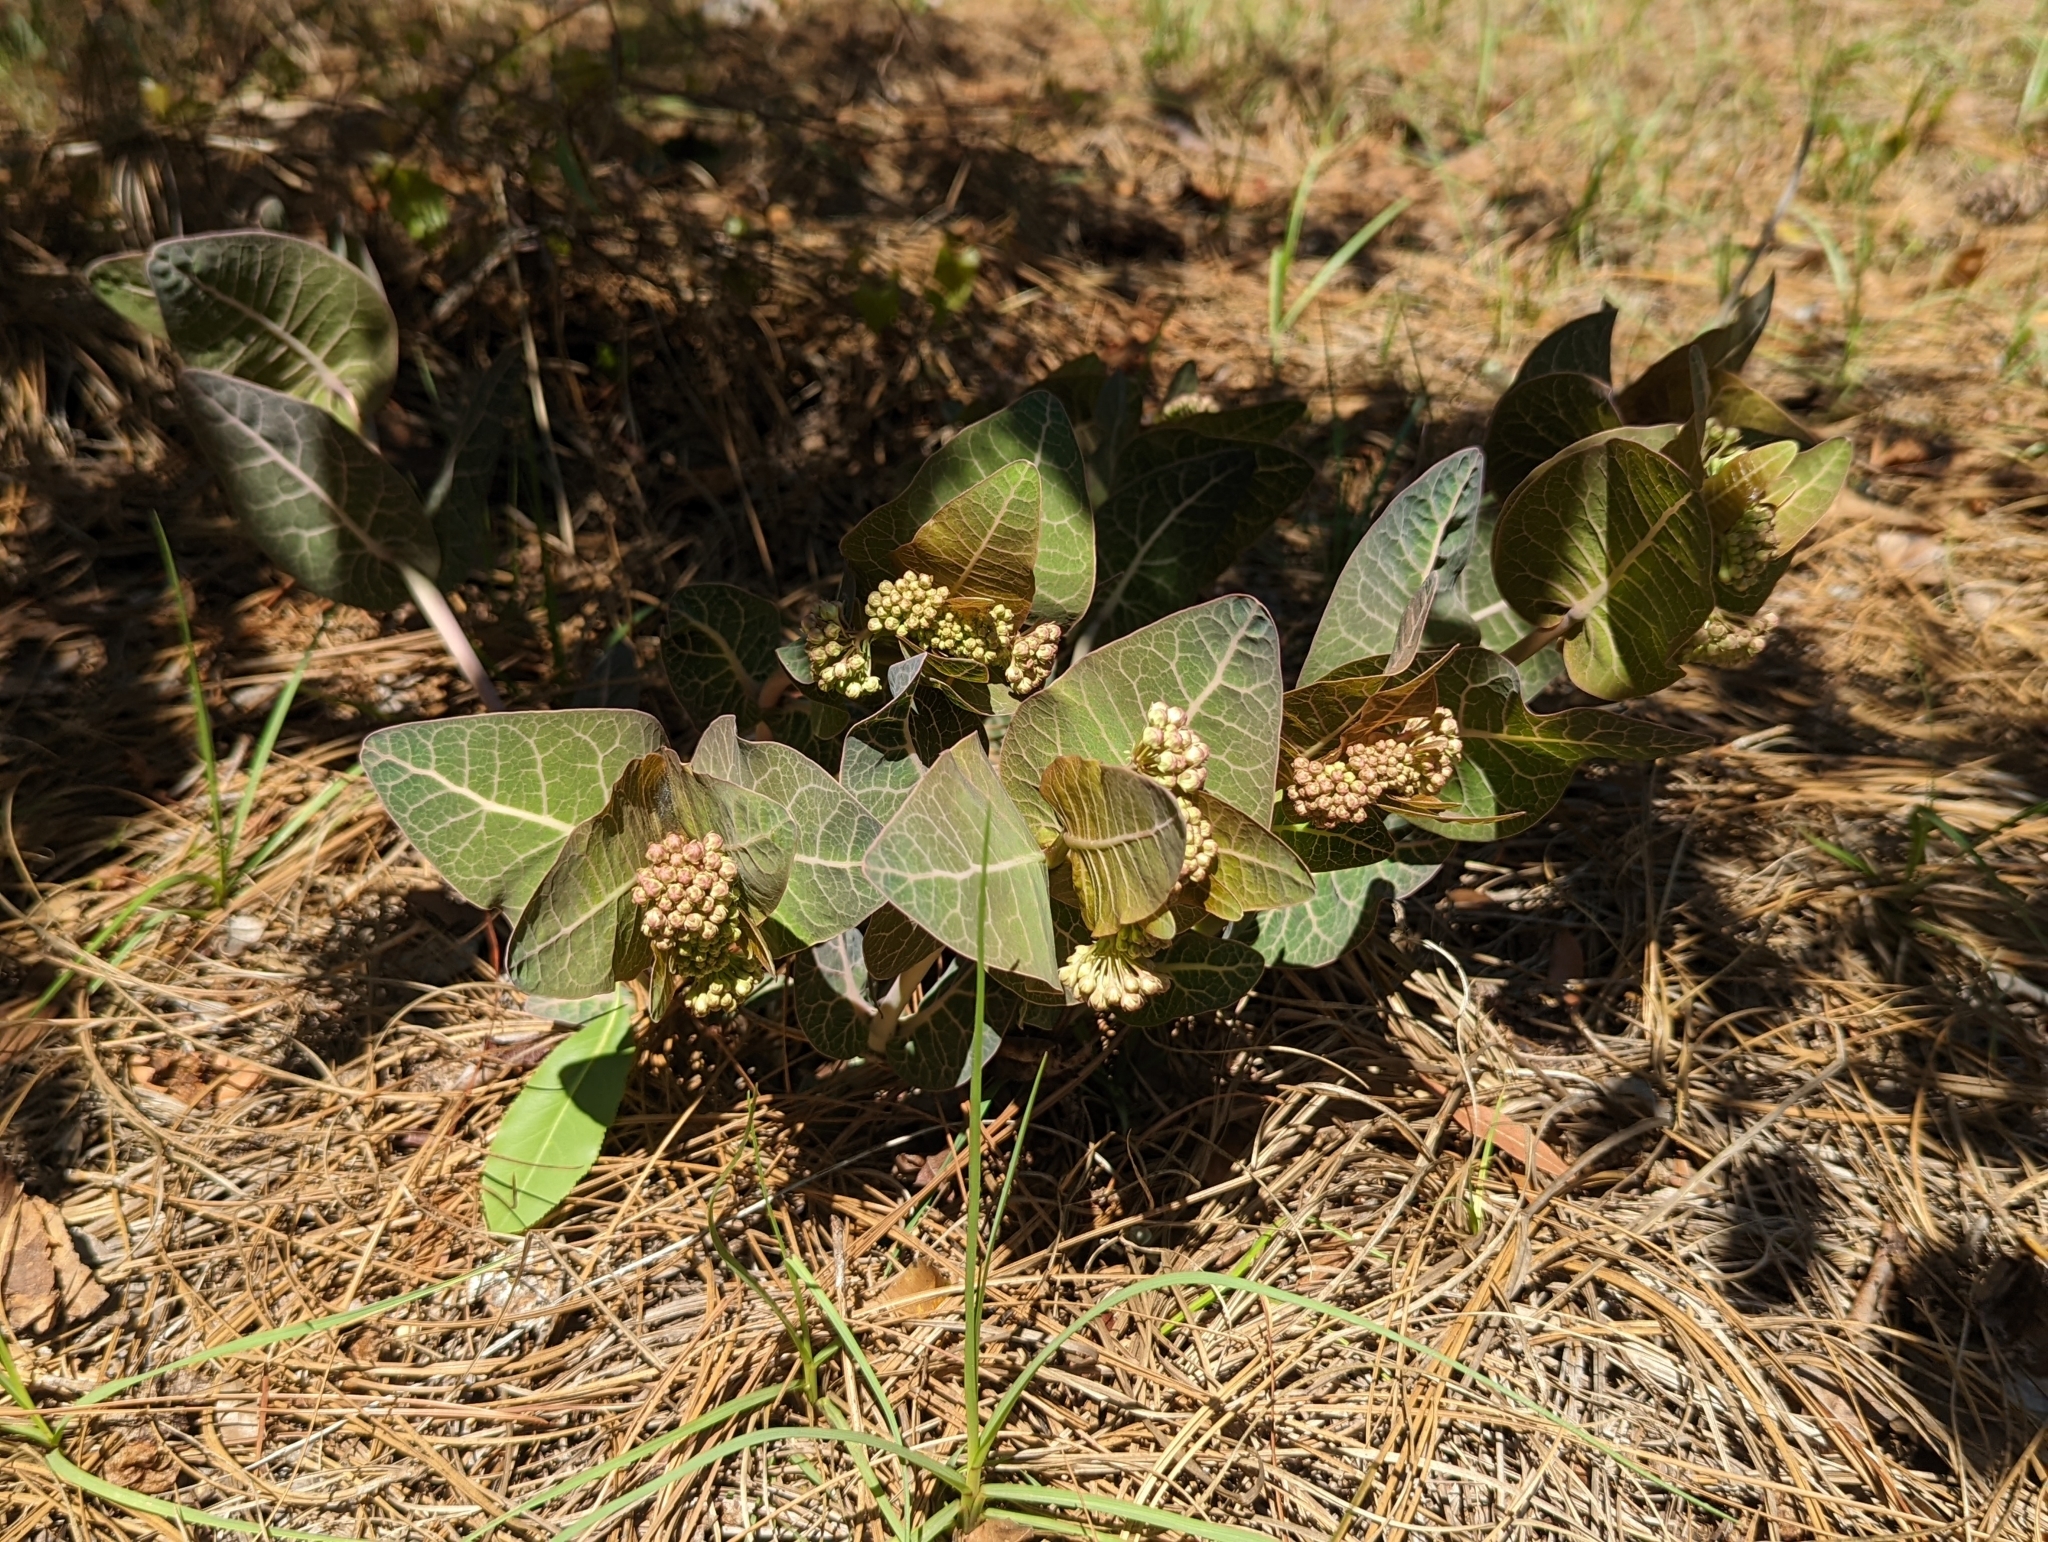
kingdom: Plantae
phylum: Tracheophyta
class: Magnoliopsida
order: Gentianales
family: Apocynaceae
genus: Asclepias
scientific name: Asclepias humistrata
